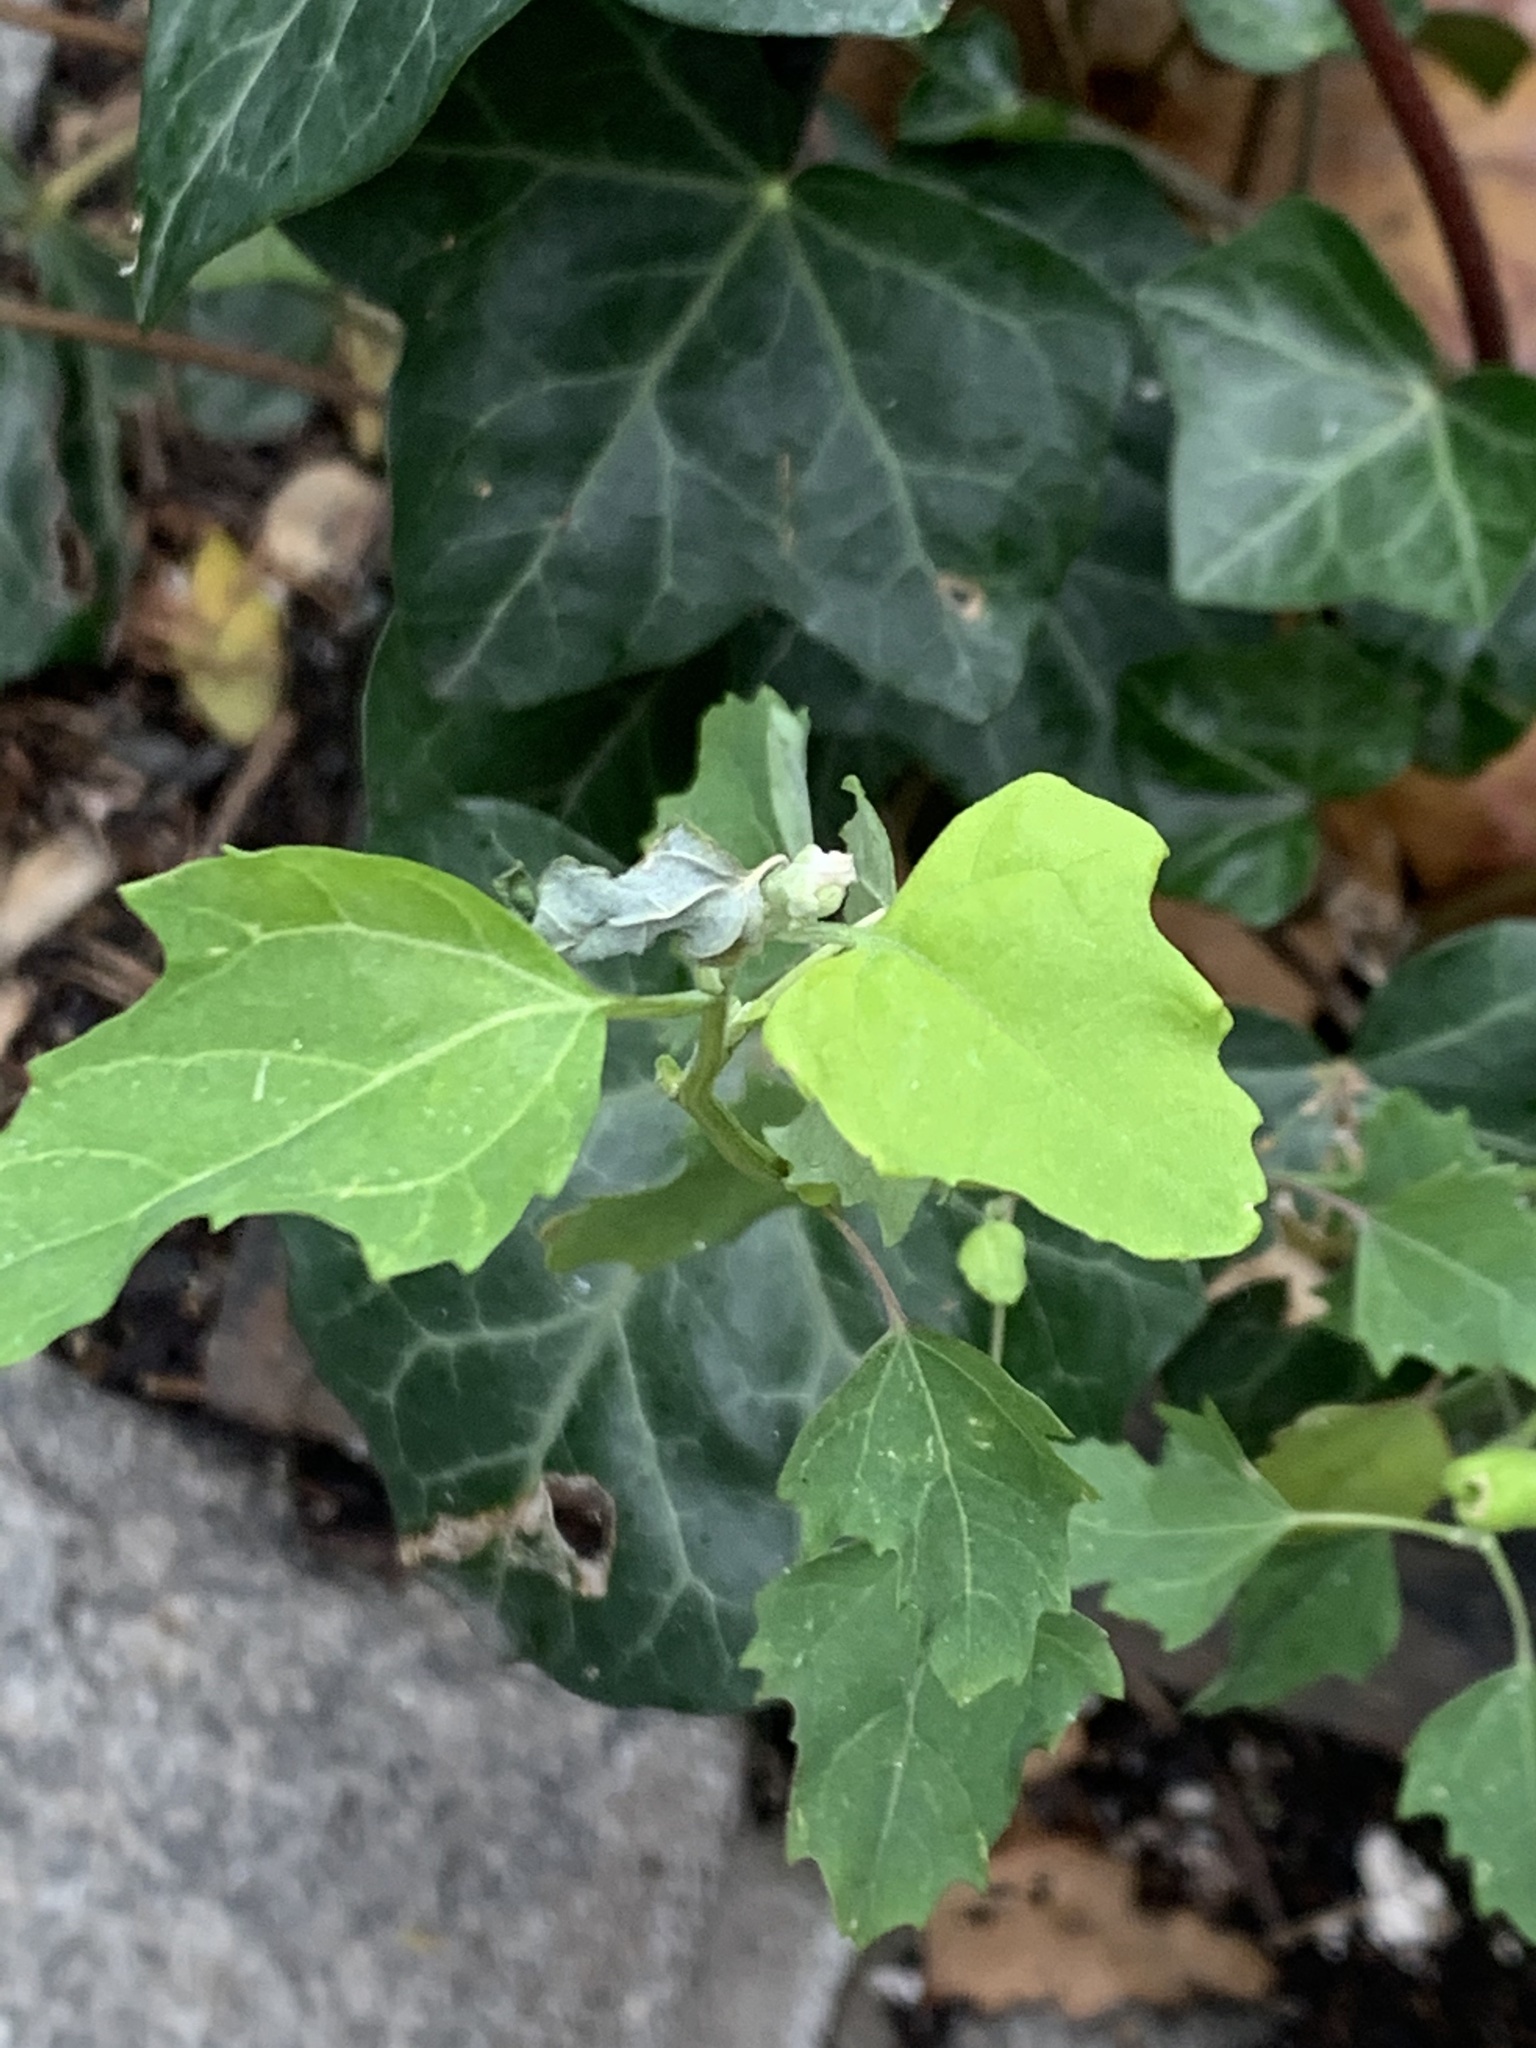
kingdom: Plantae
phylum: Tracheophyta
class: Magnoliopsida
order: Caryophyllales
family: Amaranthaceae
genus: Chenopodium
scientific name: Chenopodium album
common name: Fat-hen
